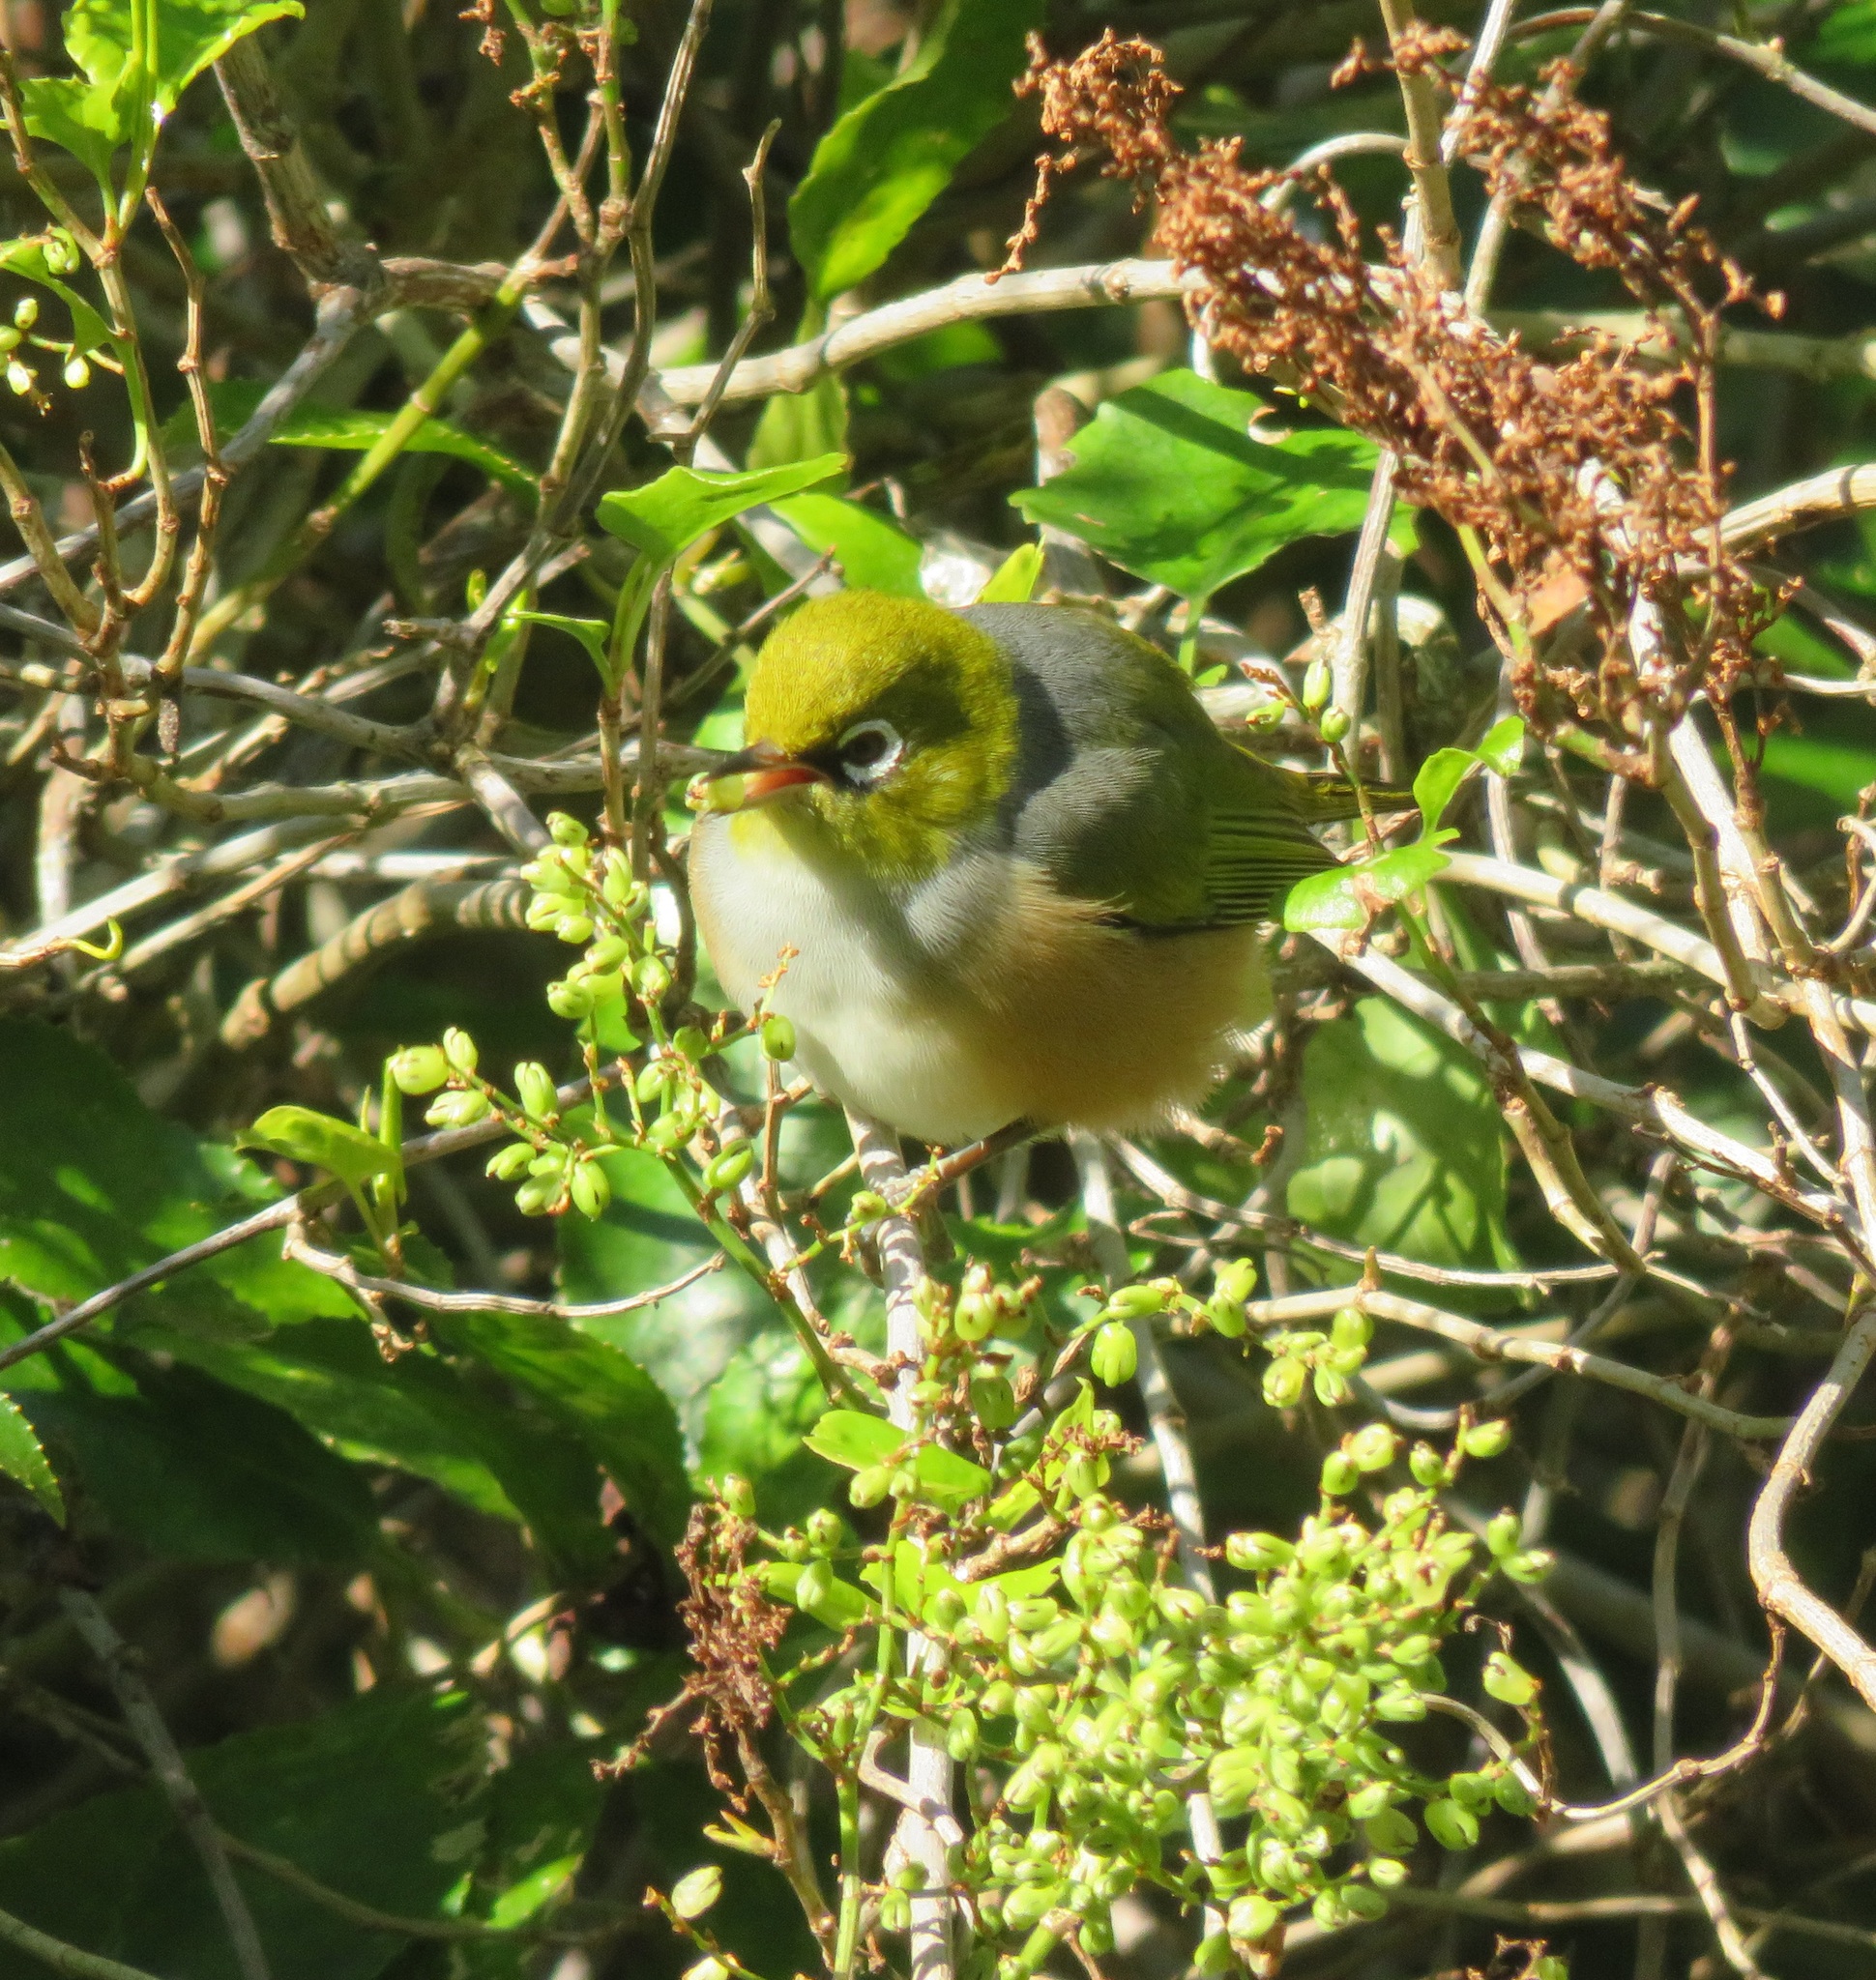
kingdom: Animalia
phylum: Chordata
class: Aves
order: Passeriformes
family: Zosteropidae
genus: Zosterops
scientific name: Zosterops lateralis
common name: Silvereye
